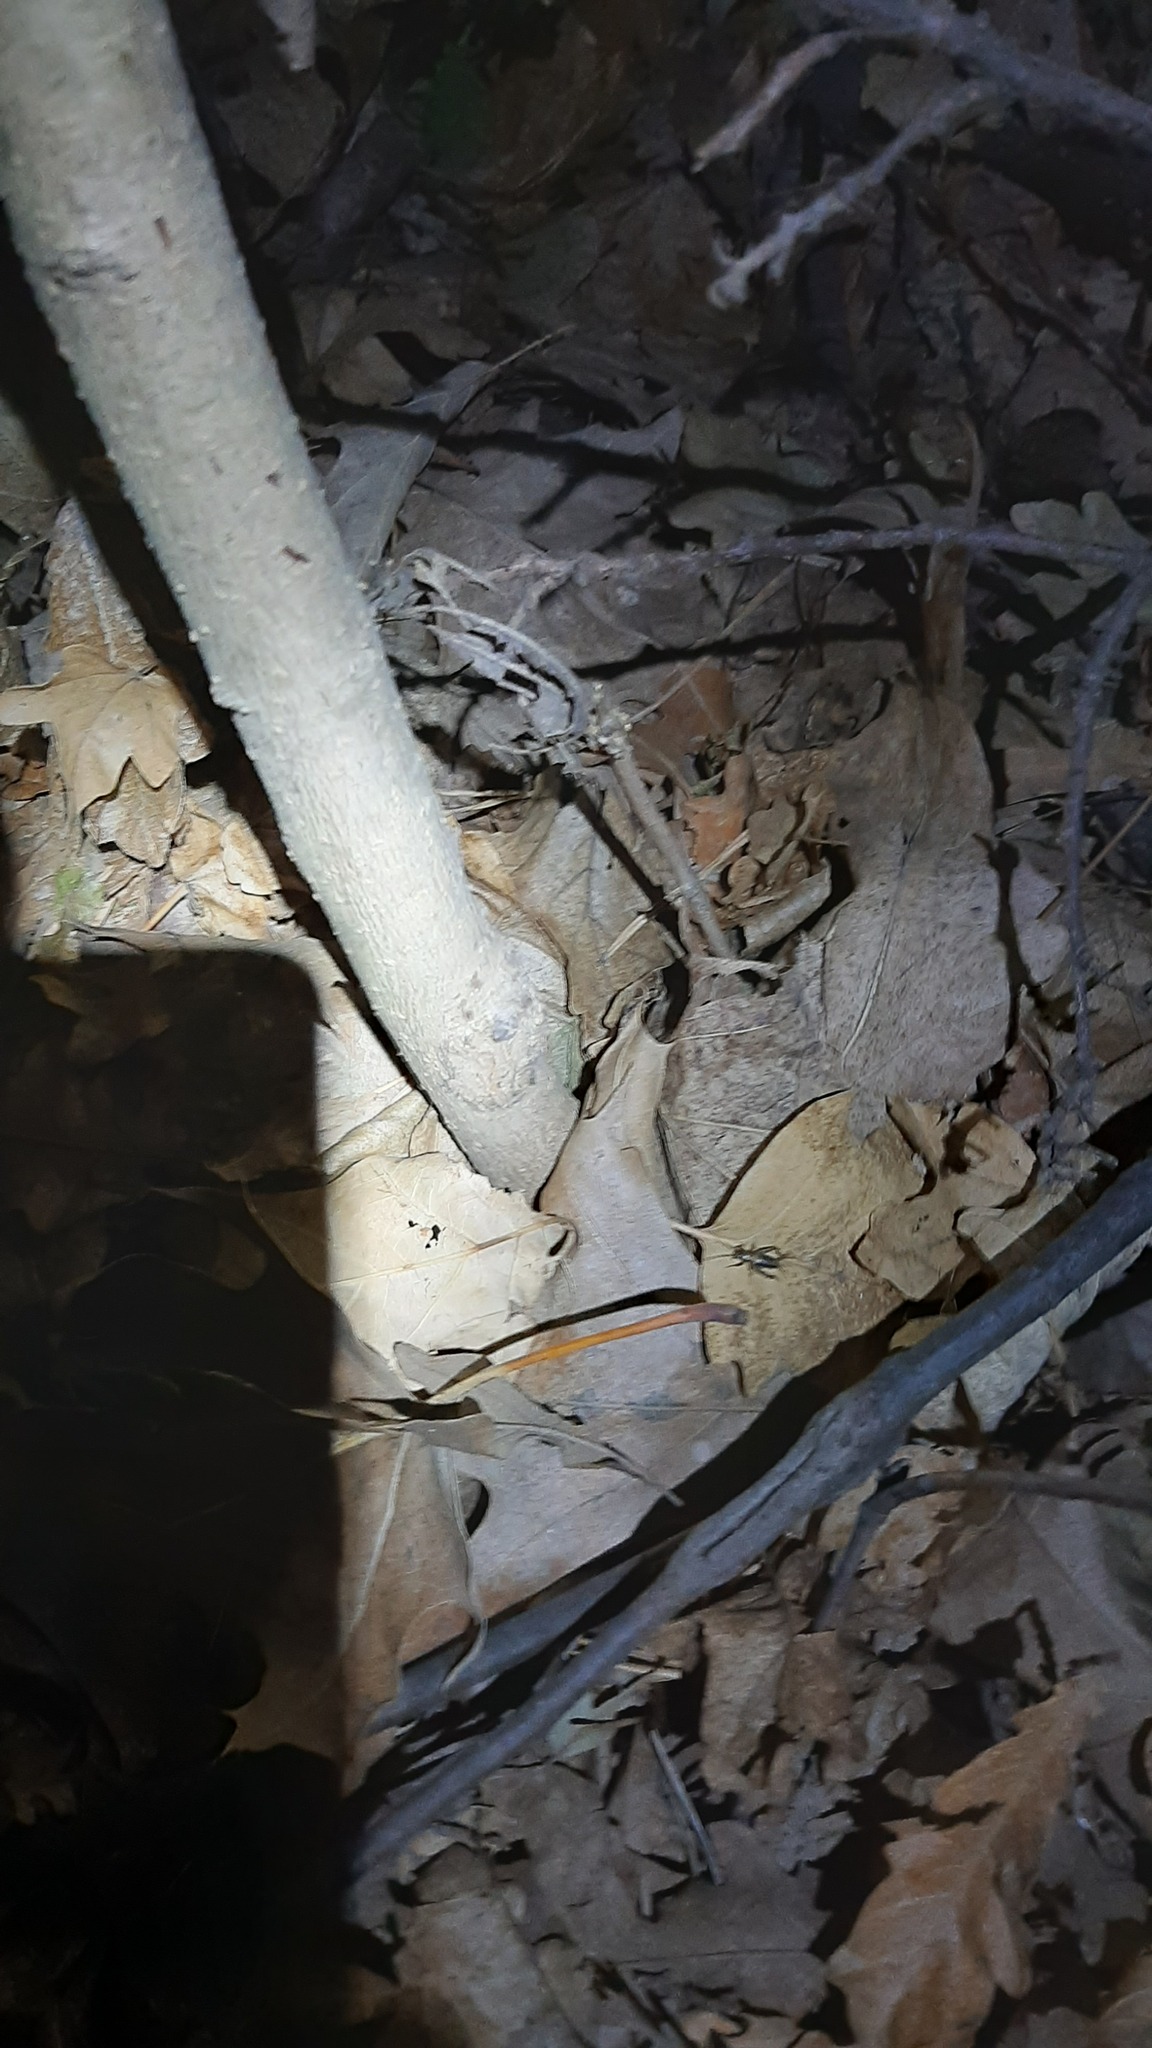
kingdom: Animalia
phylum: Arthropoda
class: Insecta
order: Orthoptera
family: Trigonidiidae
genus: Nemobius
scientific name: Nemobius sylvestris
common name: Wood-cricket
